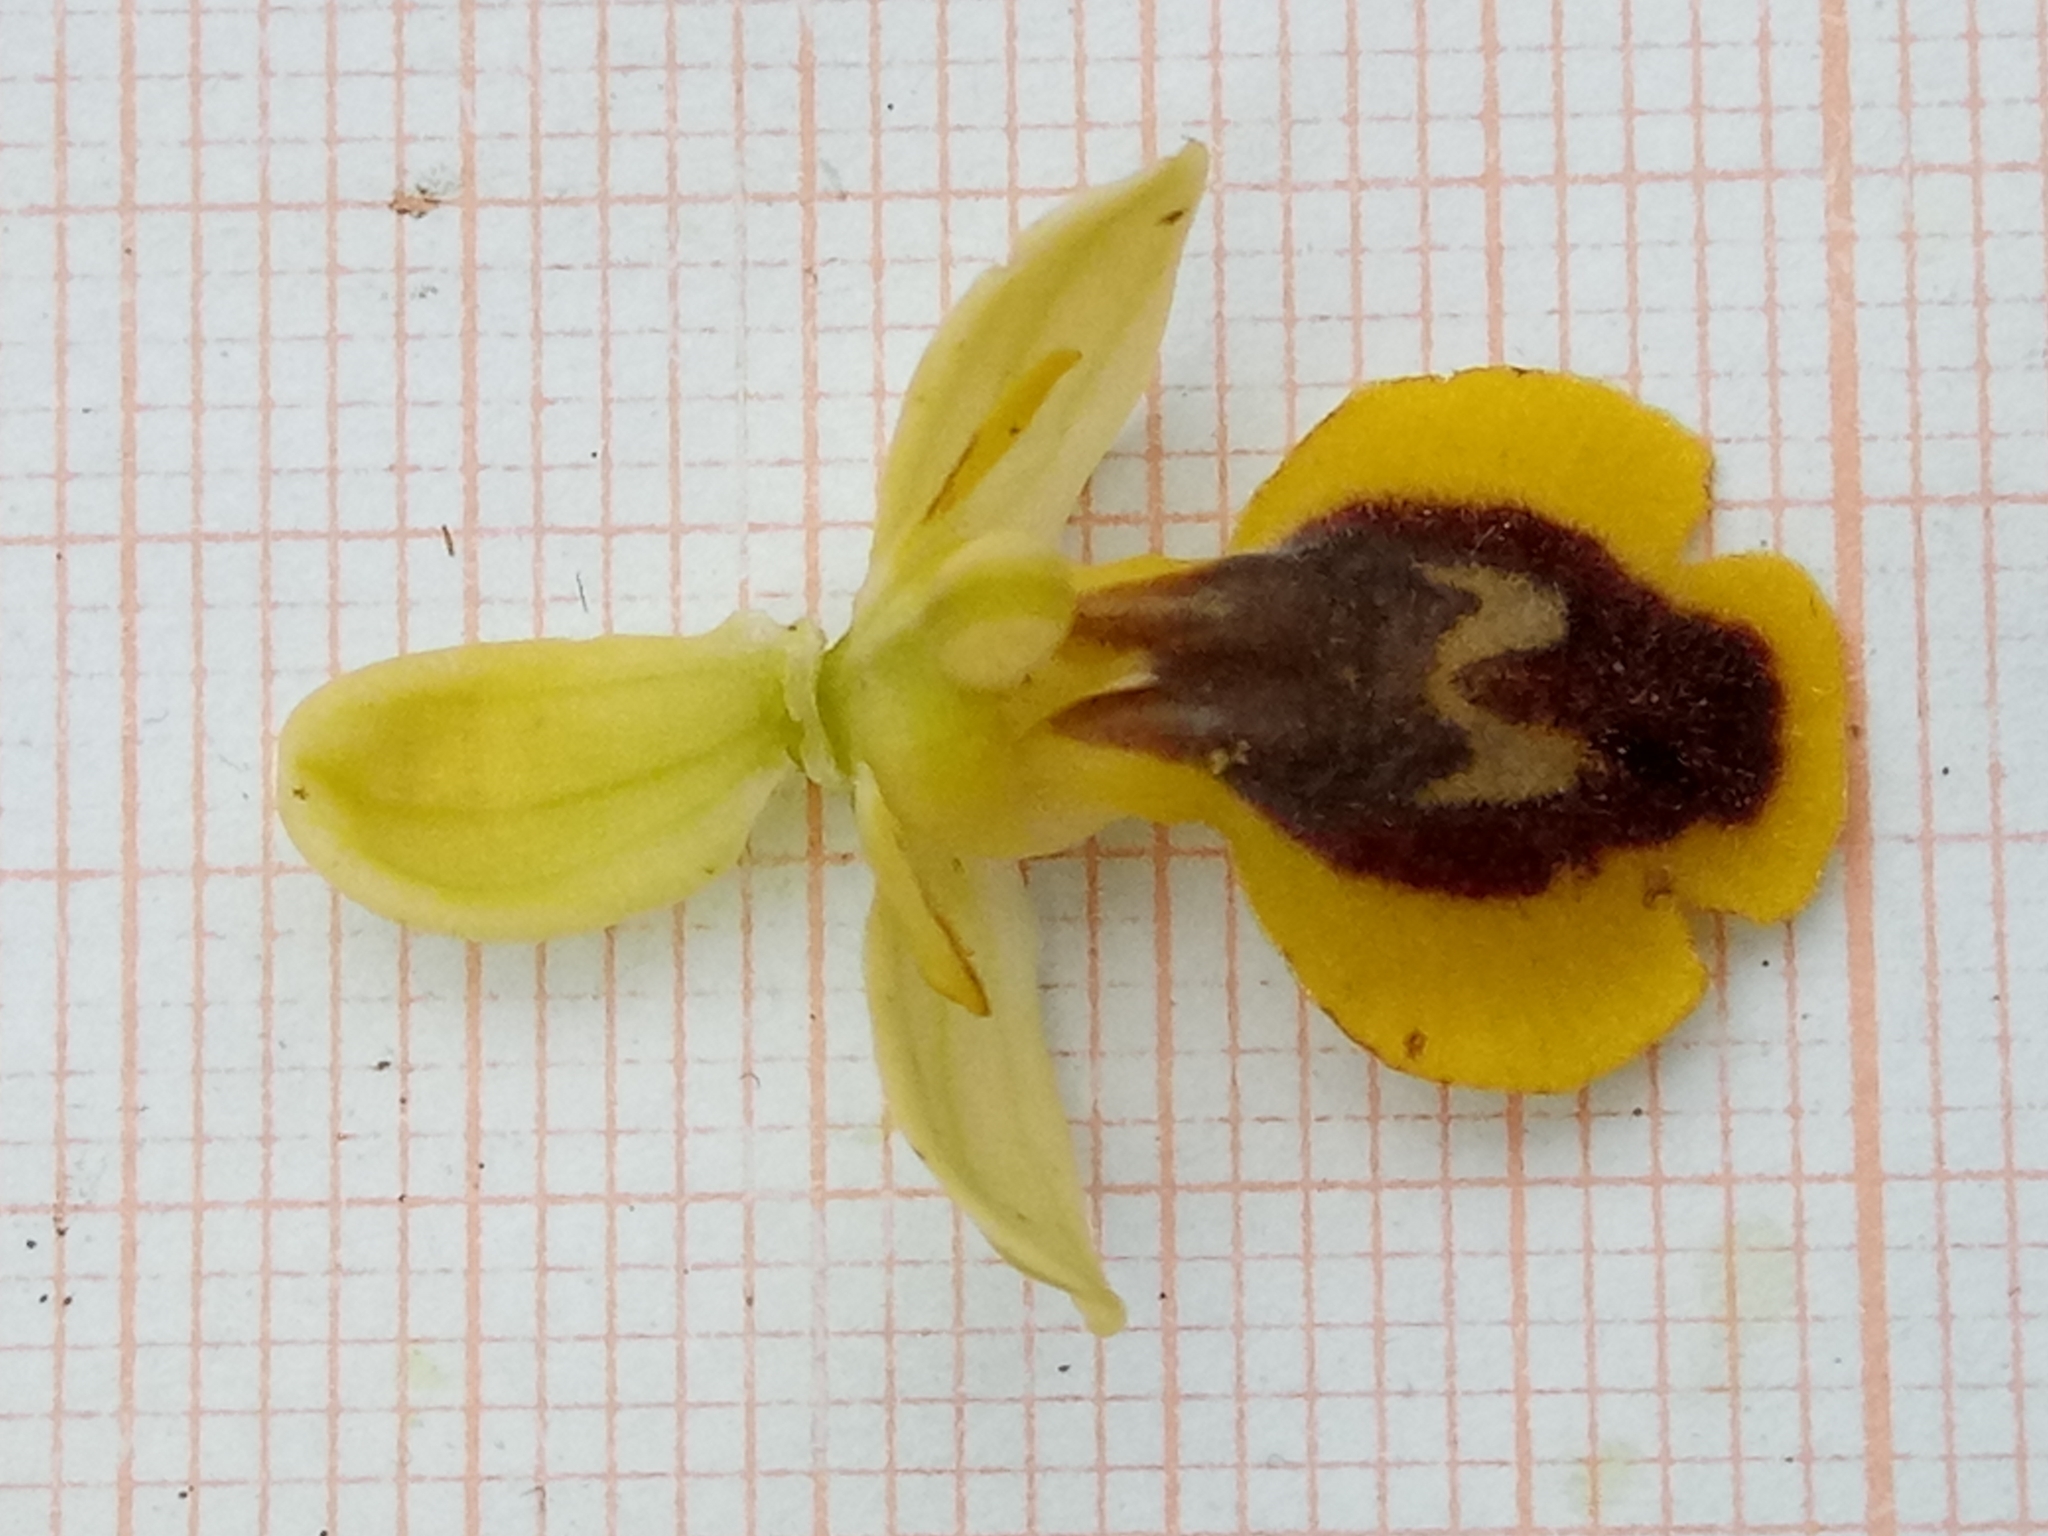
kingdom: Plantae
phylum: Tracheophyta
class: Liliopsida
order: Asparagales
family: Orchidaceae
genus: Ophrys
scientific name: Ophrys battandieri
